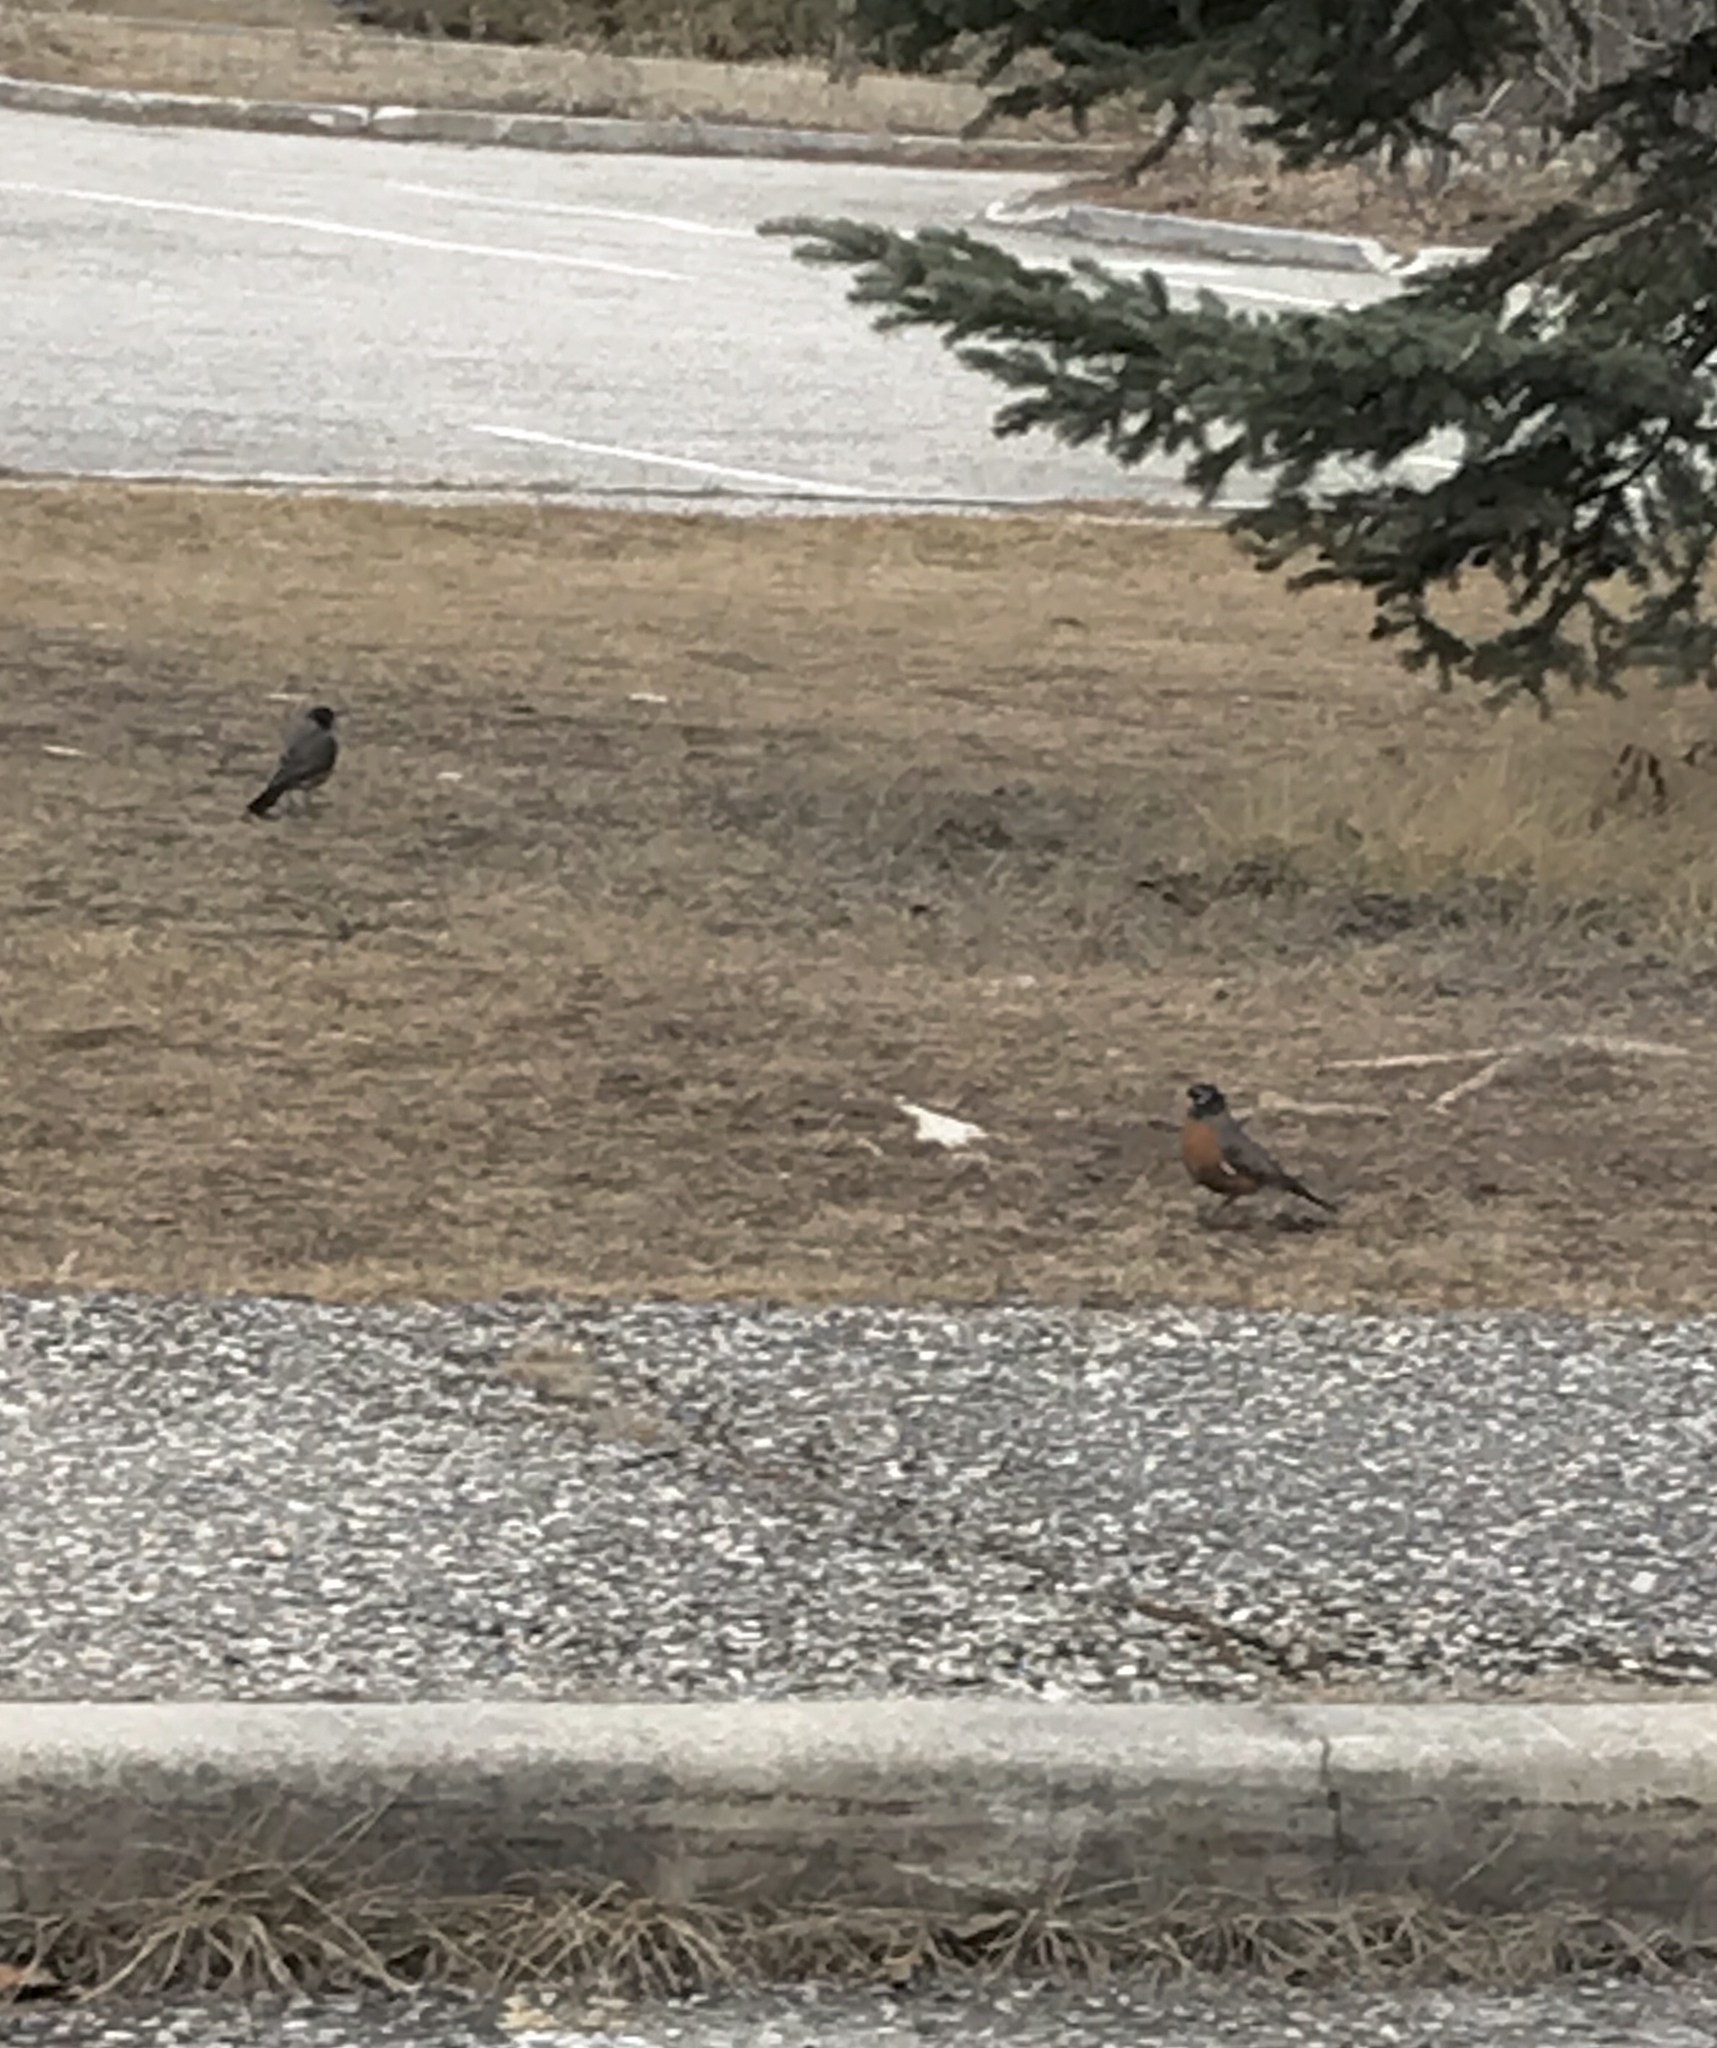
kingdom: Animalia
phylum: Chordata
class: Aves
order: Passeriformes
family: Turdidae
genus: Turdus
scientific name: Turdus migratorius
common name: American robin
